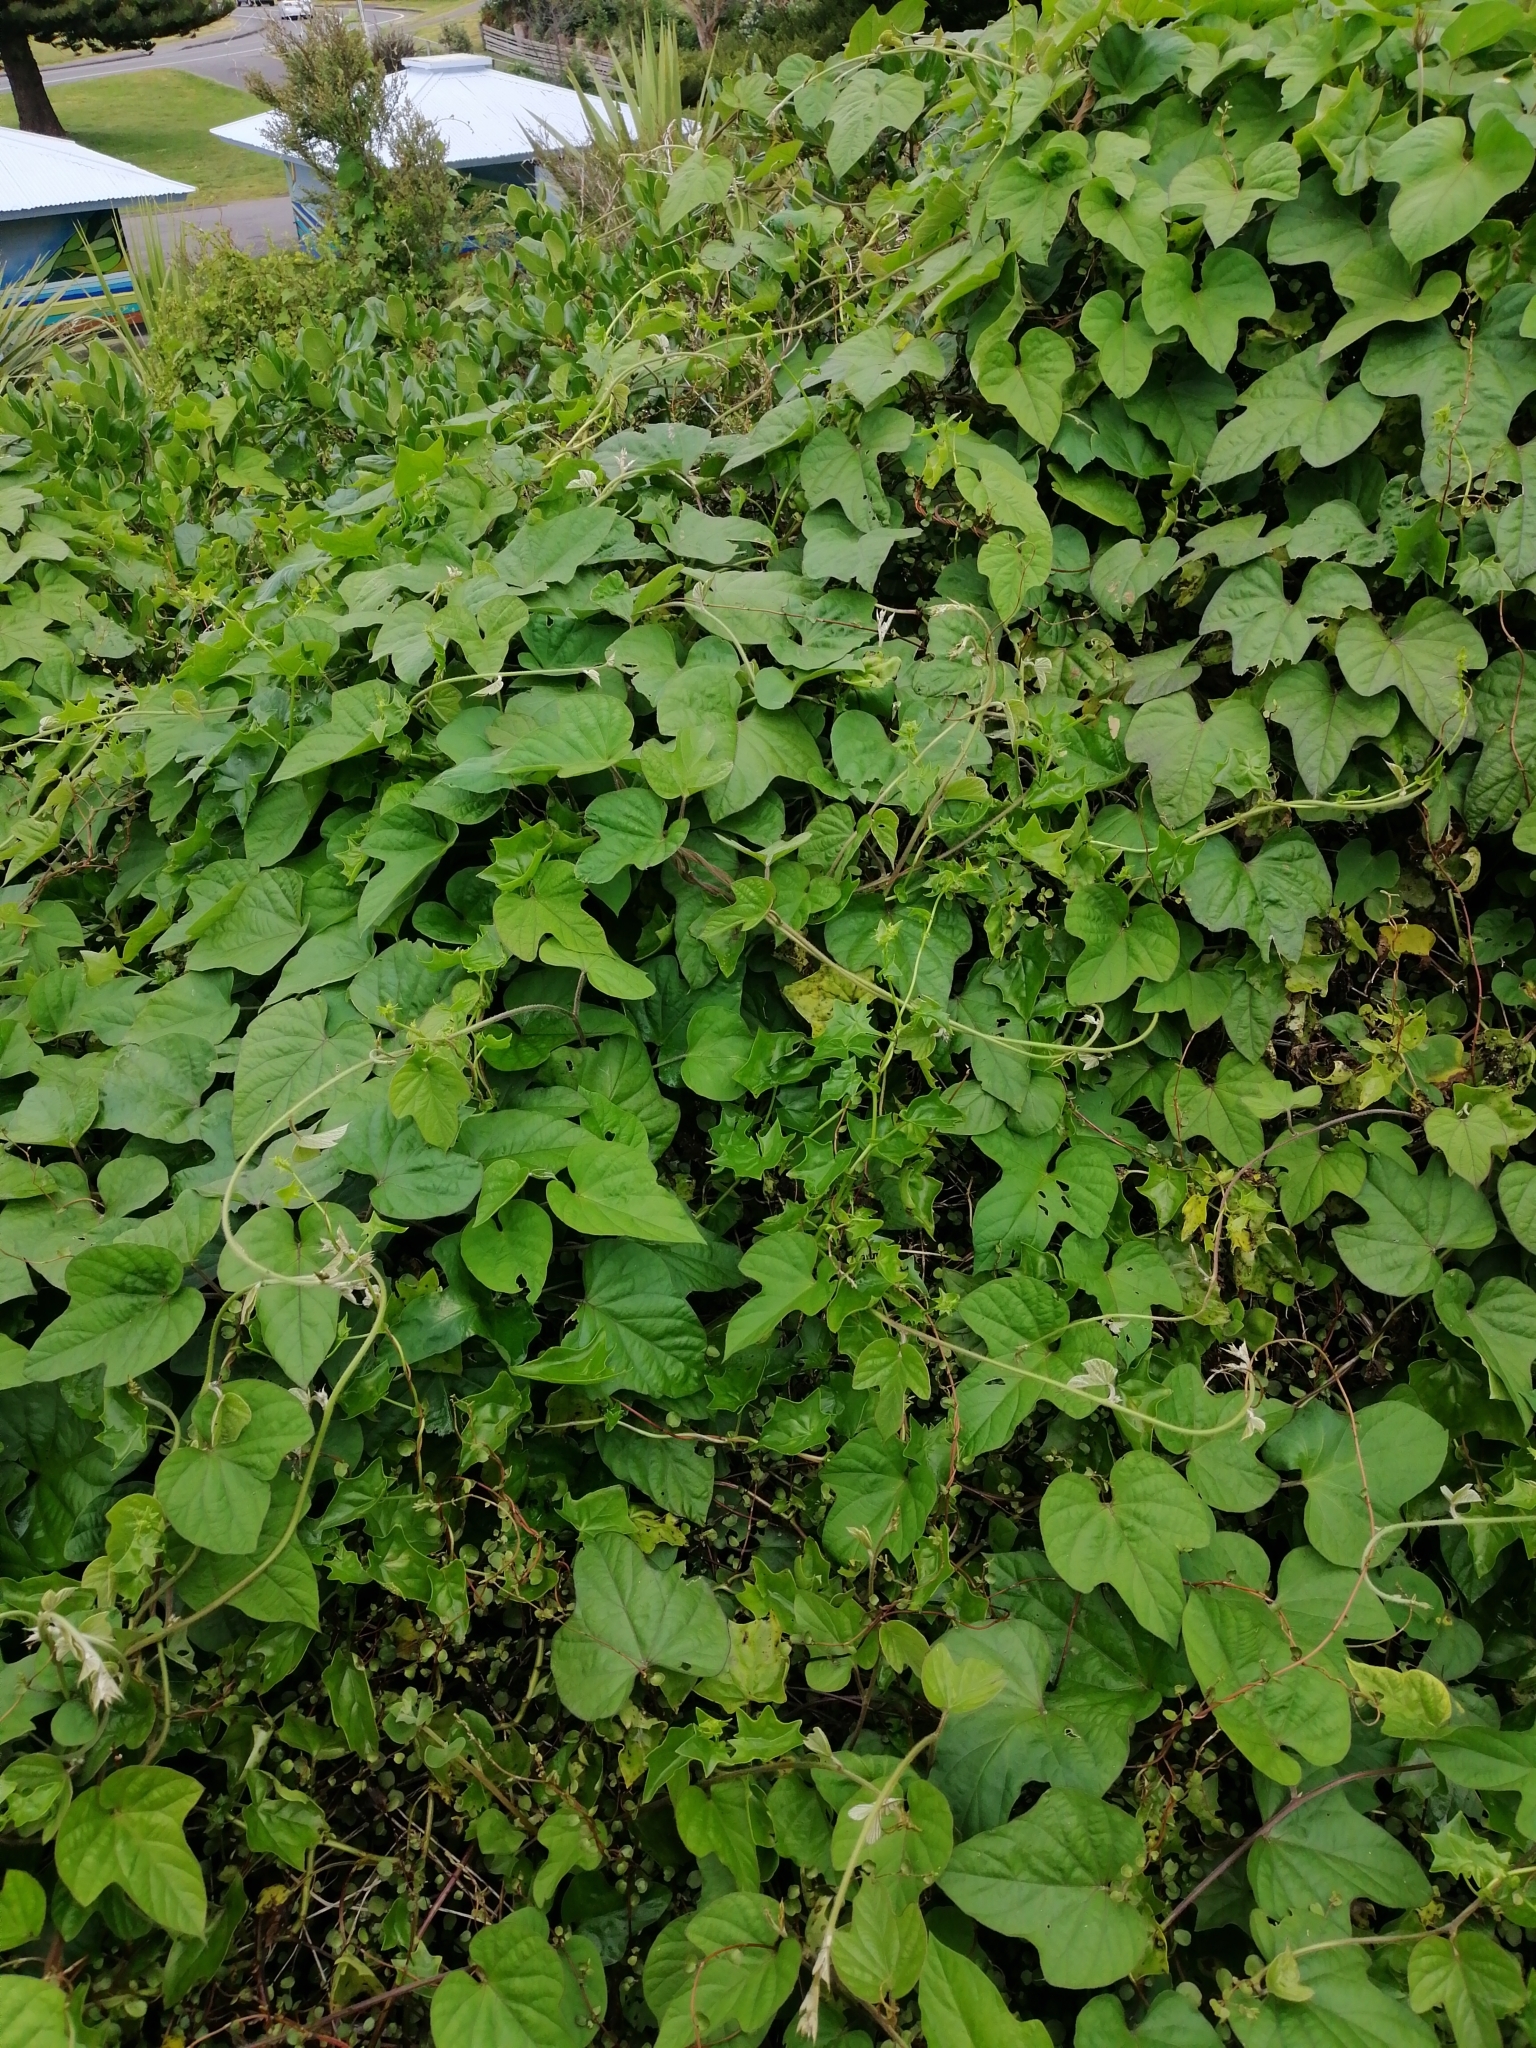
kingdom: Plantae
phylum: Tracheophyta
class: Magnoliopsida
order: Solanales
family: Convolvulaceae
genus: Ipomoea
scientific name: Ipomoea indica
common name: Blue dawnflower
